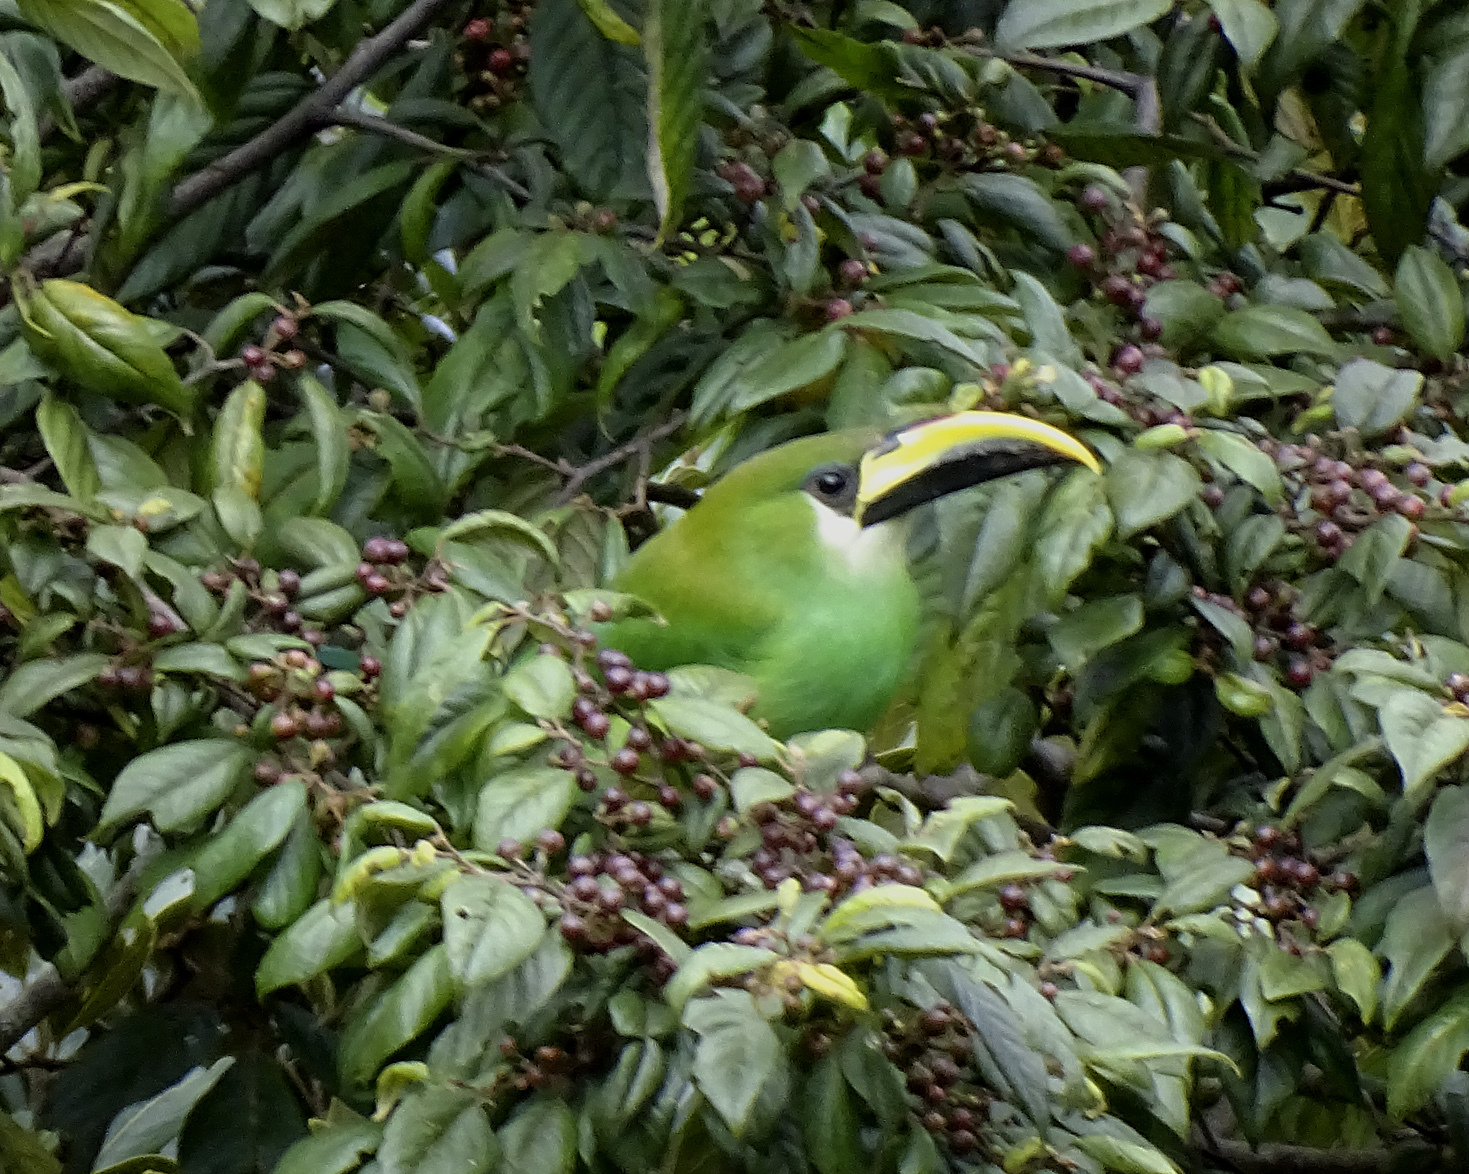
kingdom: Animalia
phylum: Chordata
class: Aves
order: Piciformes
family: Ramphastidae
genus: Aulacorhynchus
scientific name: Aulacorhynchus prasinus
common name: Emerald toucanet
